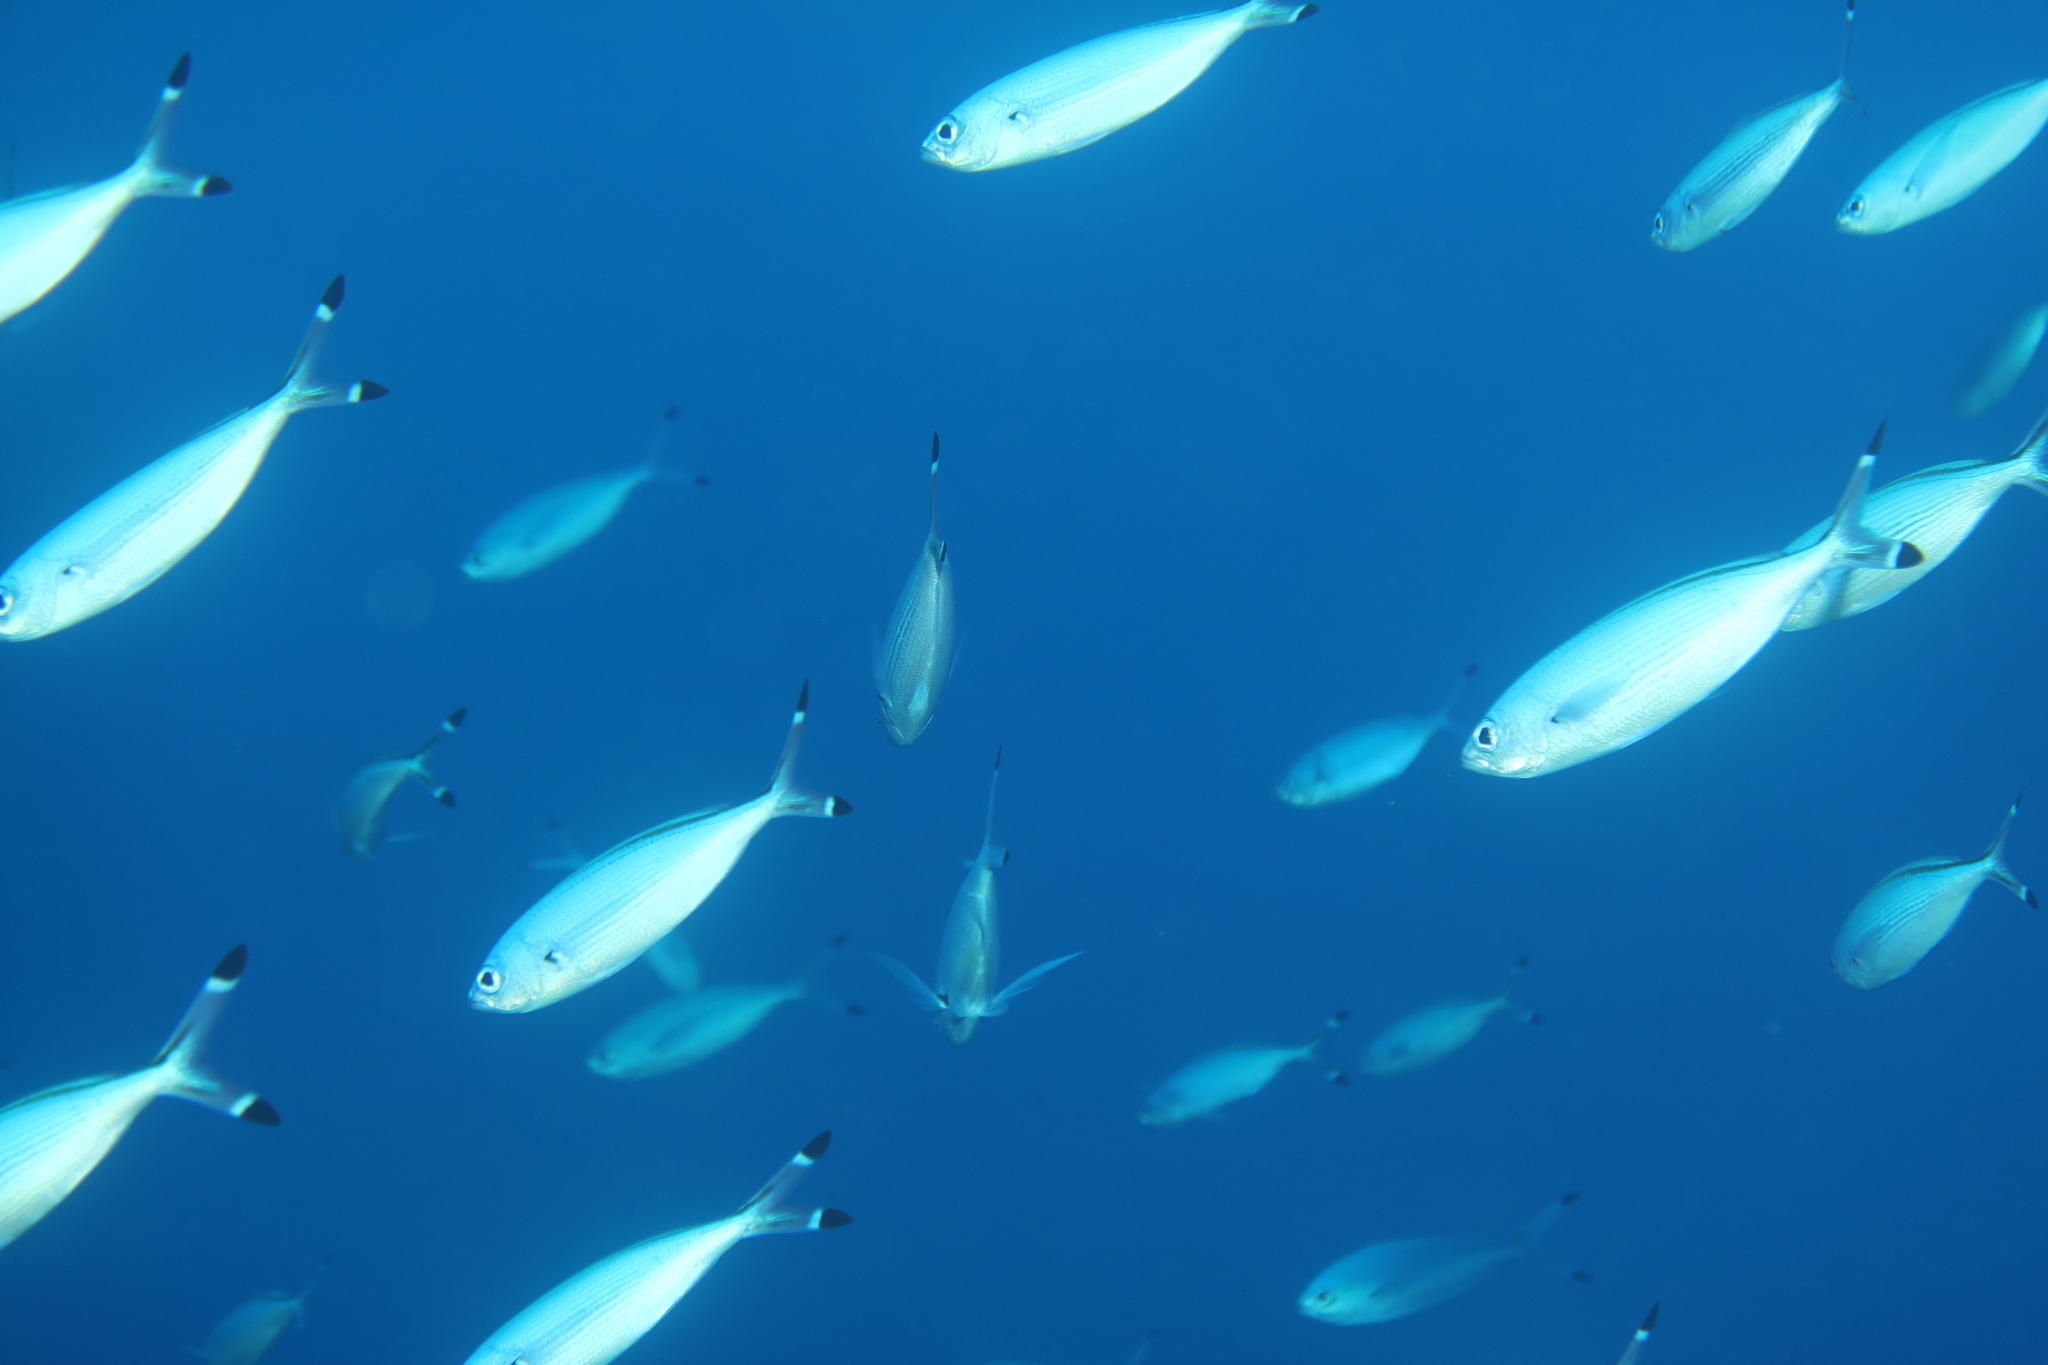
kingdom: Animalia
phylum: Chordata
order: Perciformes
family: Caesionidae
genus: Caesio
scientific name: Caesio suevica
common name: Suez fusilier
